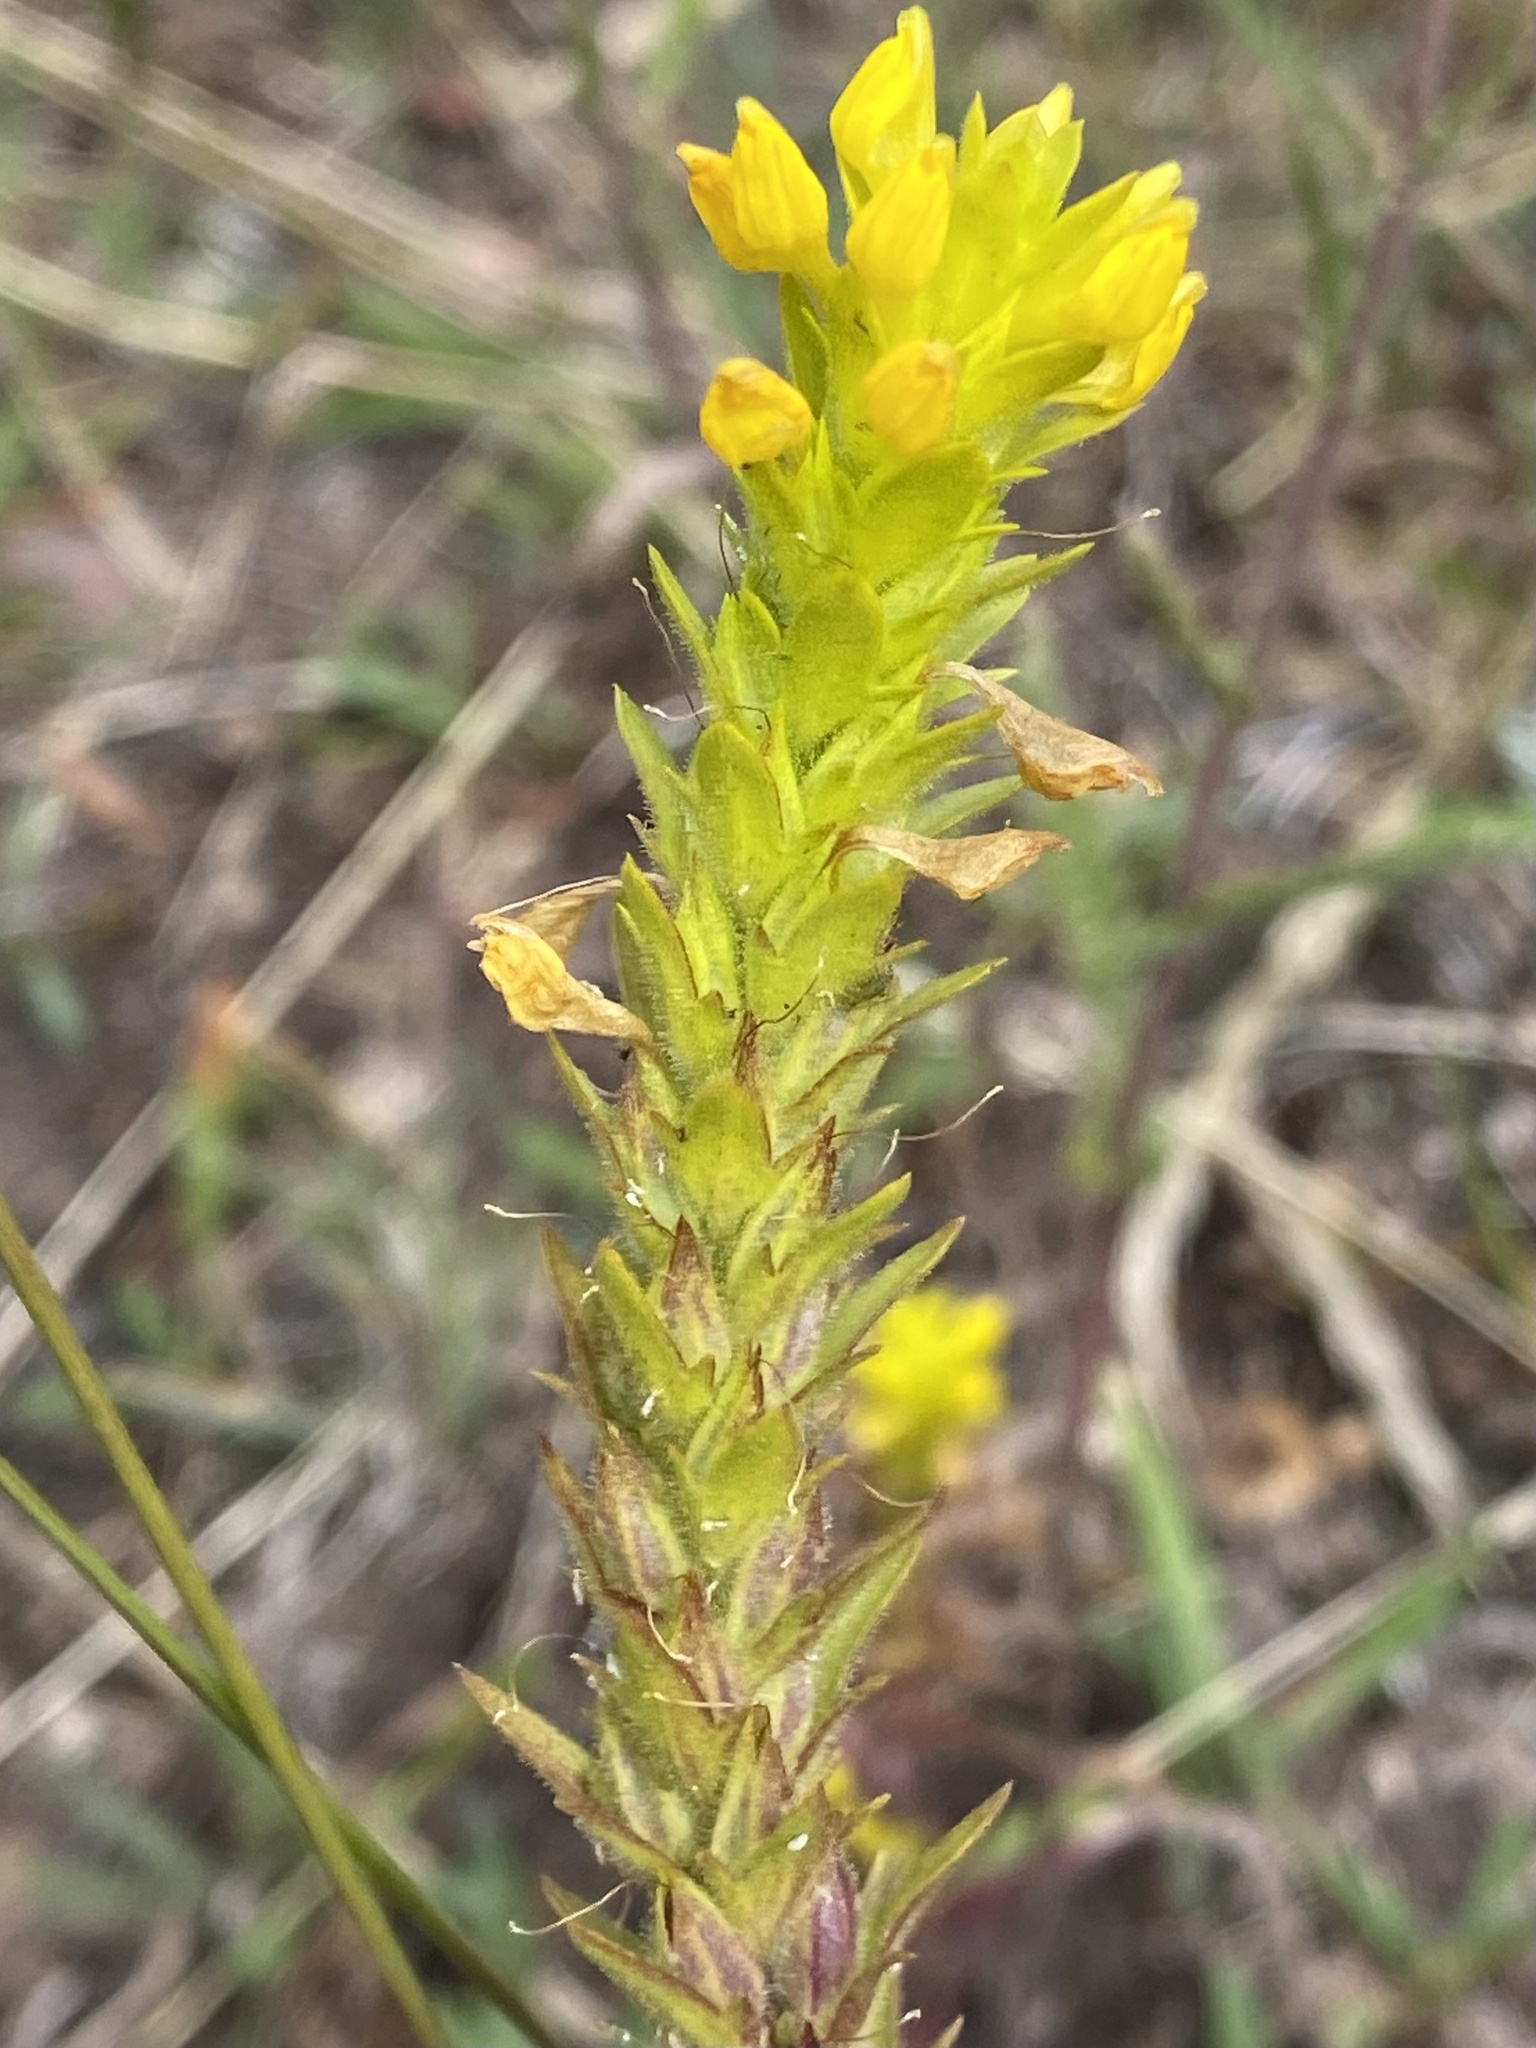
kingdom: Plantae
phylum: Tracheophyta
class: Magnoliopsida
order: Lamiales
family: Orobanchaceae
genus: Orthocarpus
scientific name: Orthocarpus luteus
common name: Golden-tongue owl's-clover
